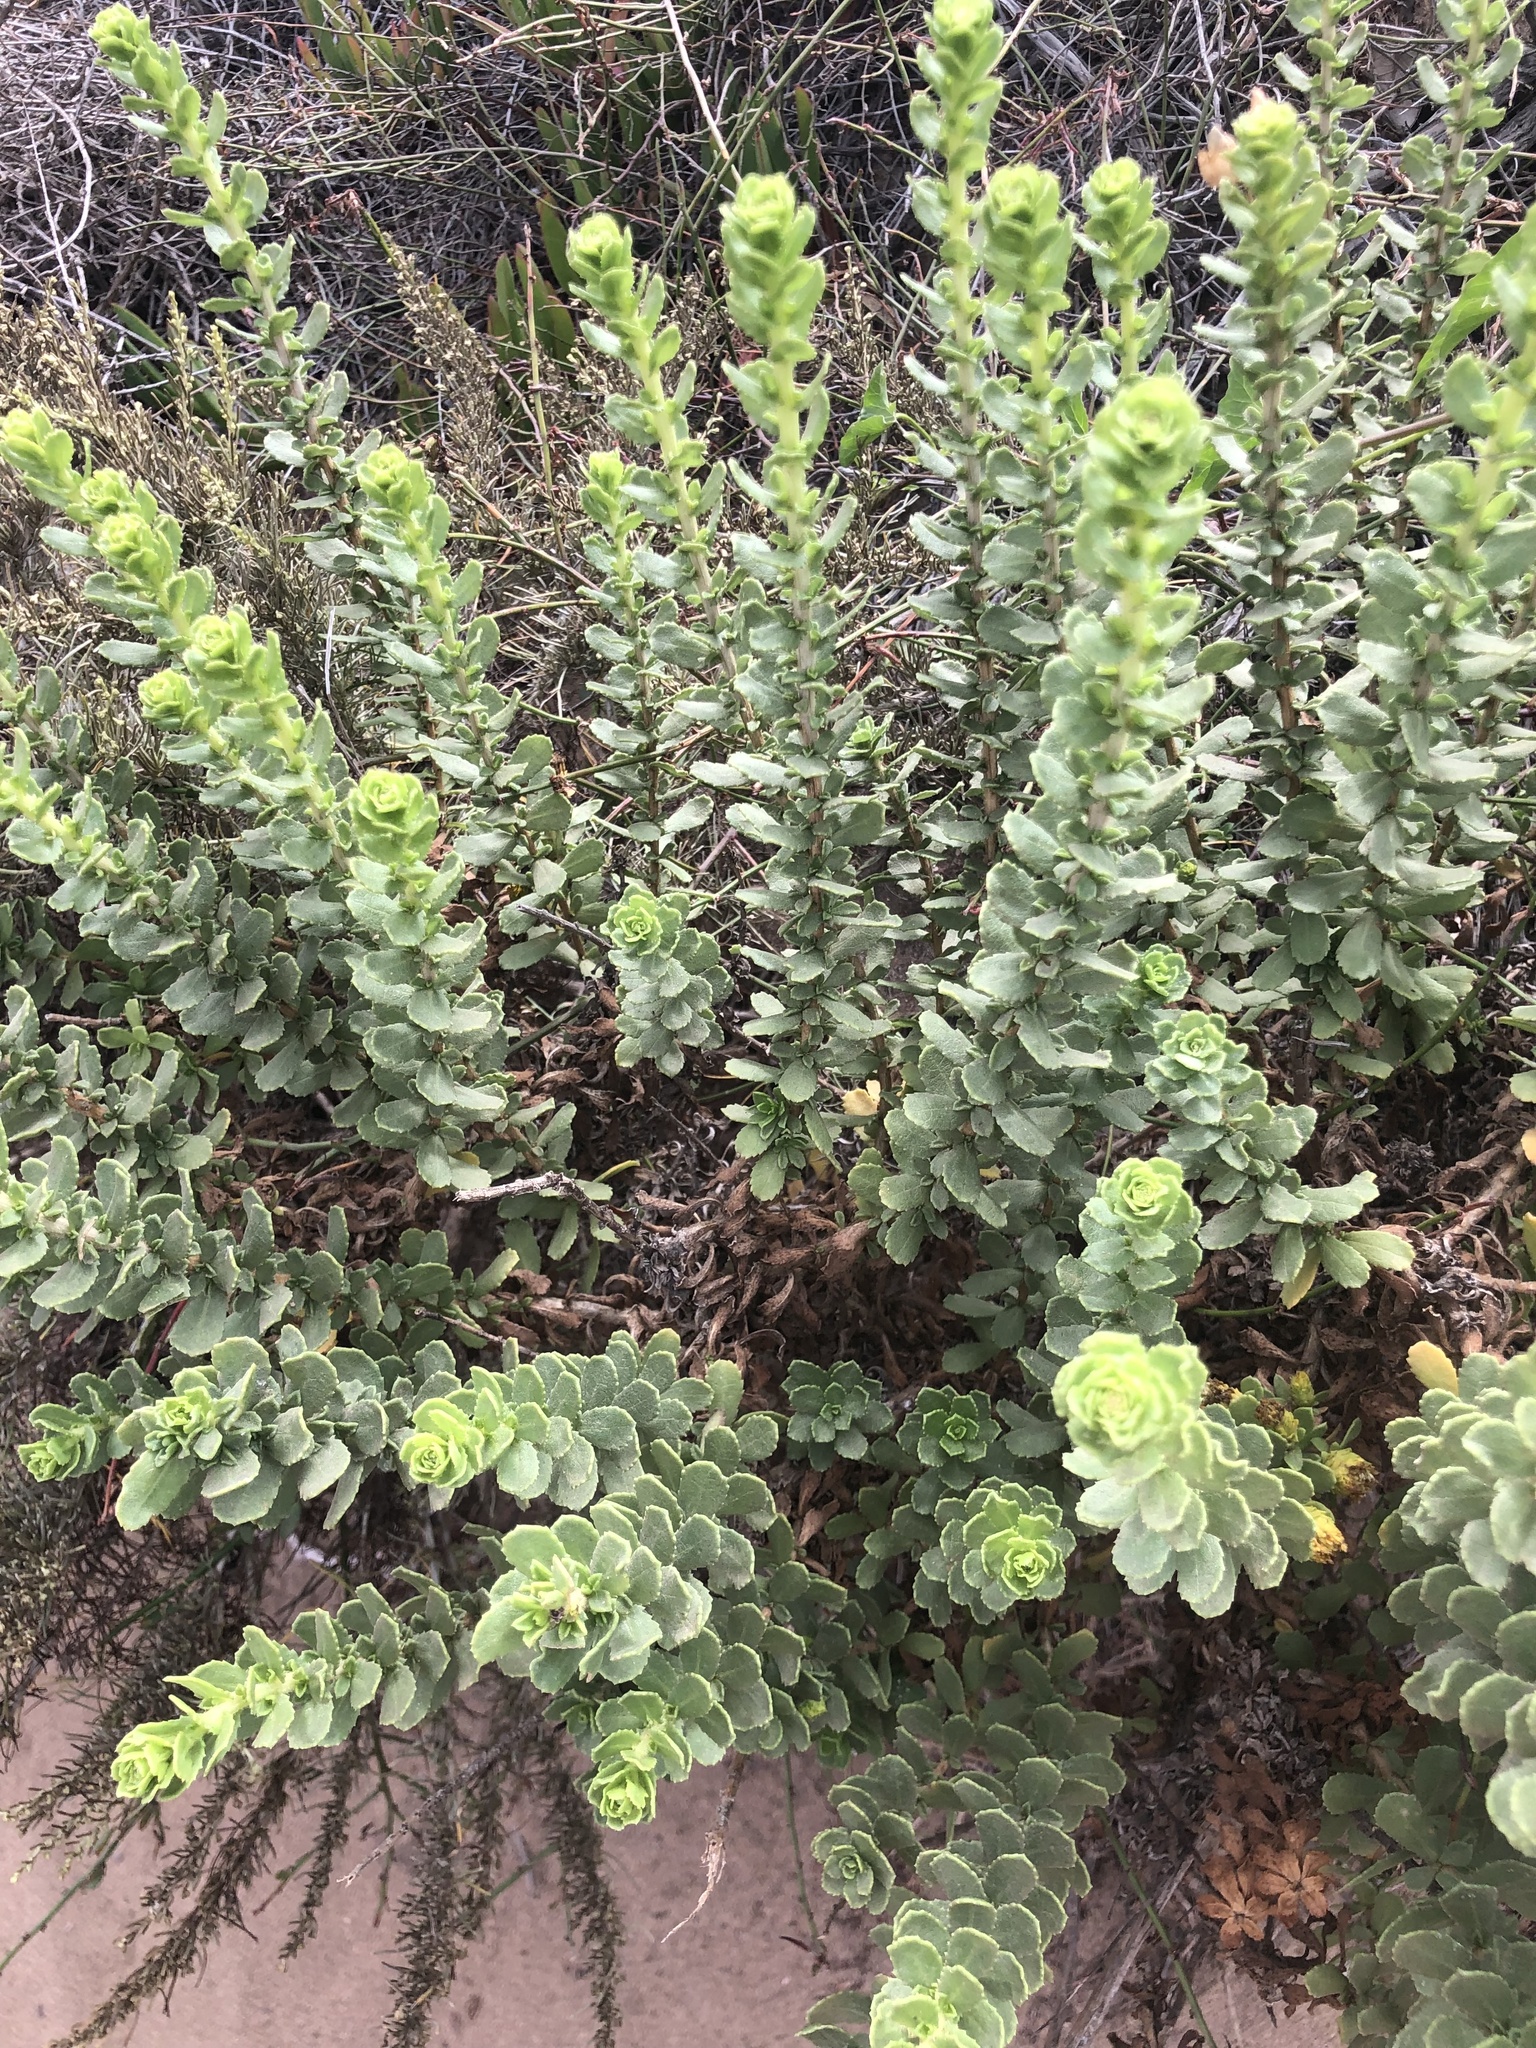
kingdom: Plantae
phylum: Tracheophyta
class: Magnoliopsida
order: Asterales
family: Asteraceae
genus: Isocoma
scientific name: Isocoma menziesii
